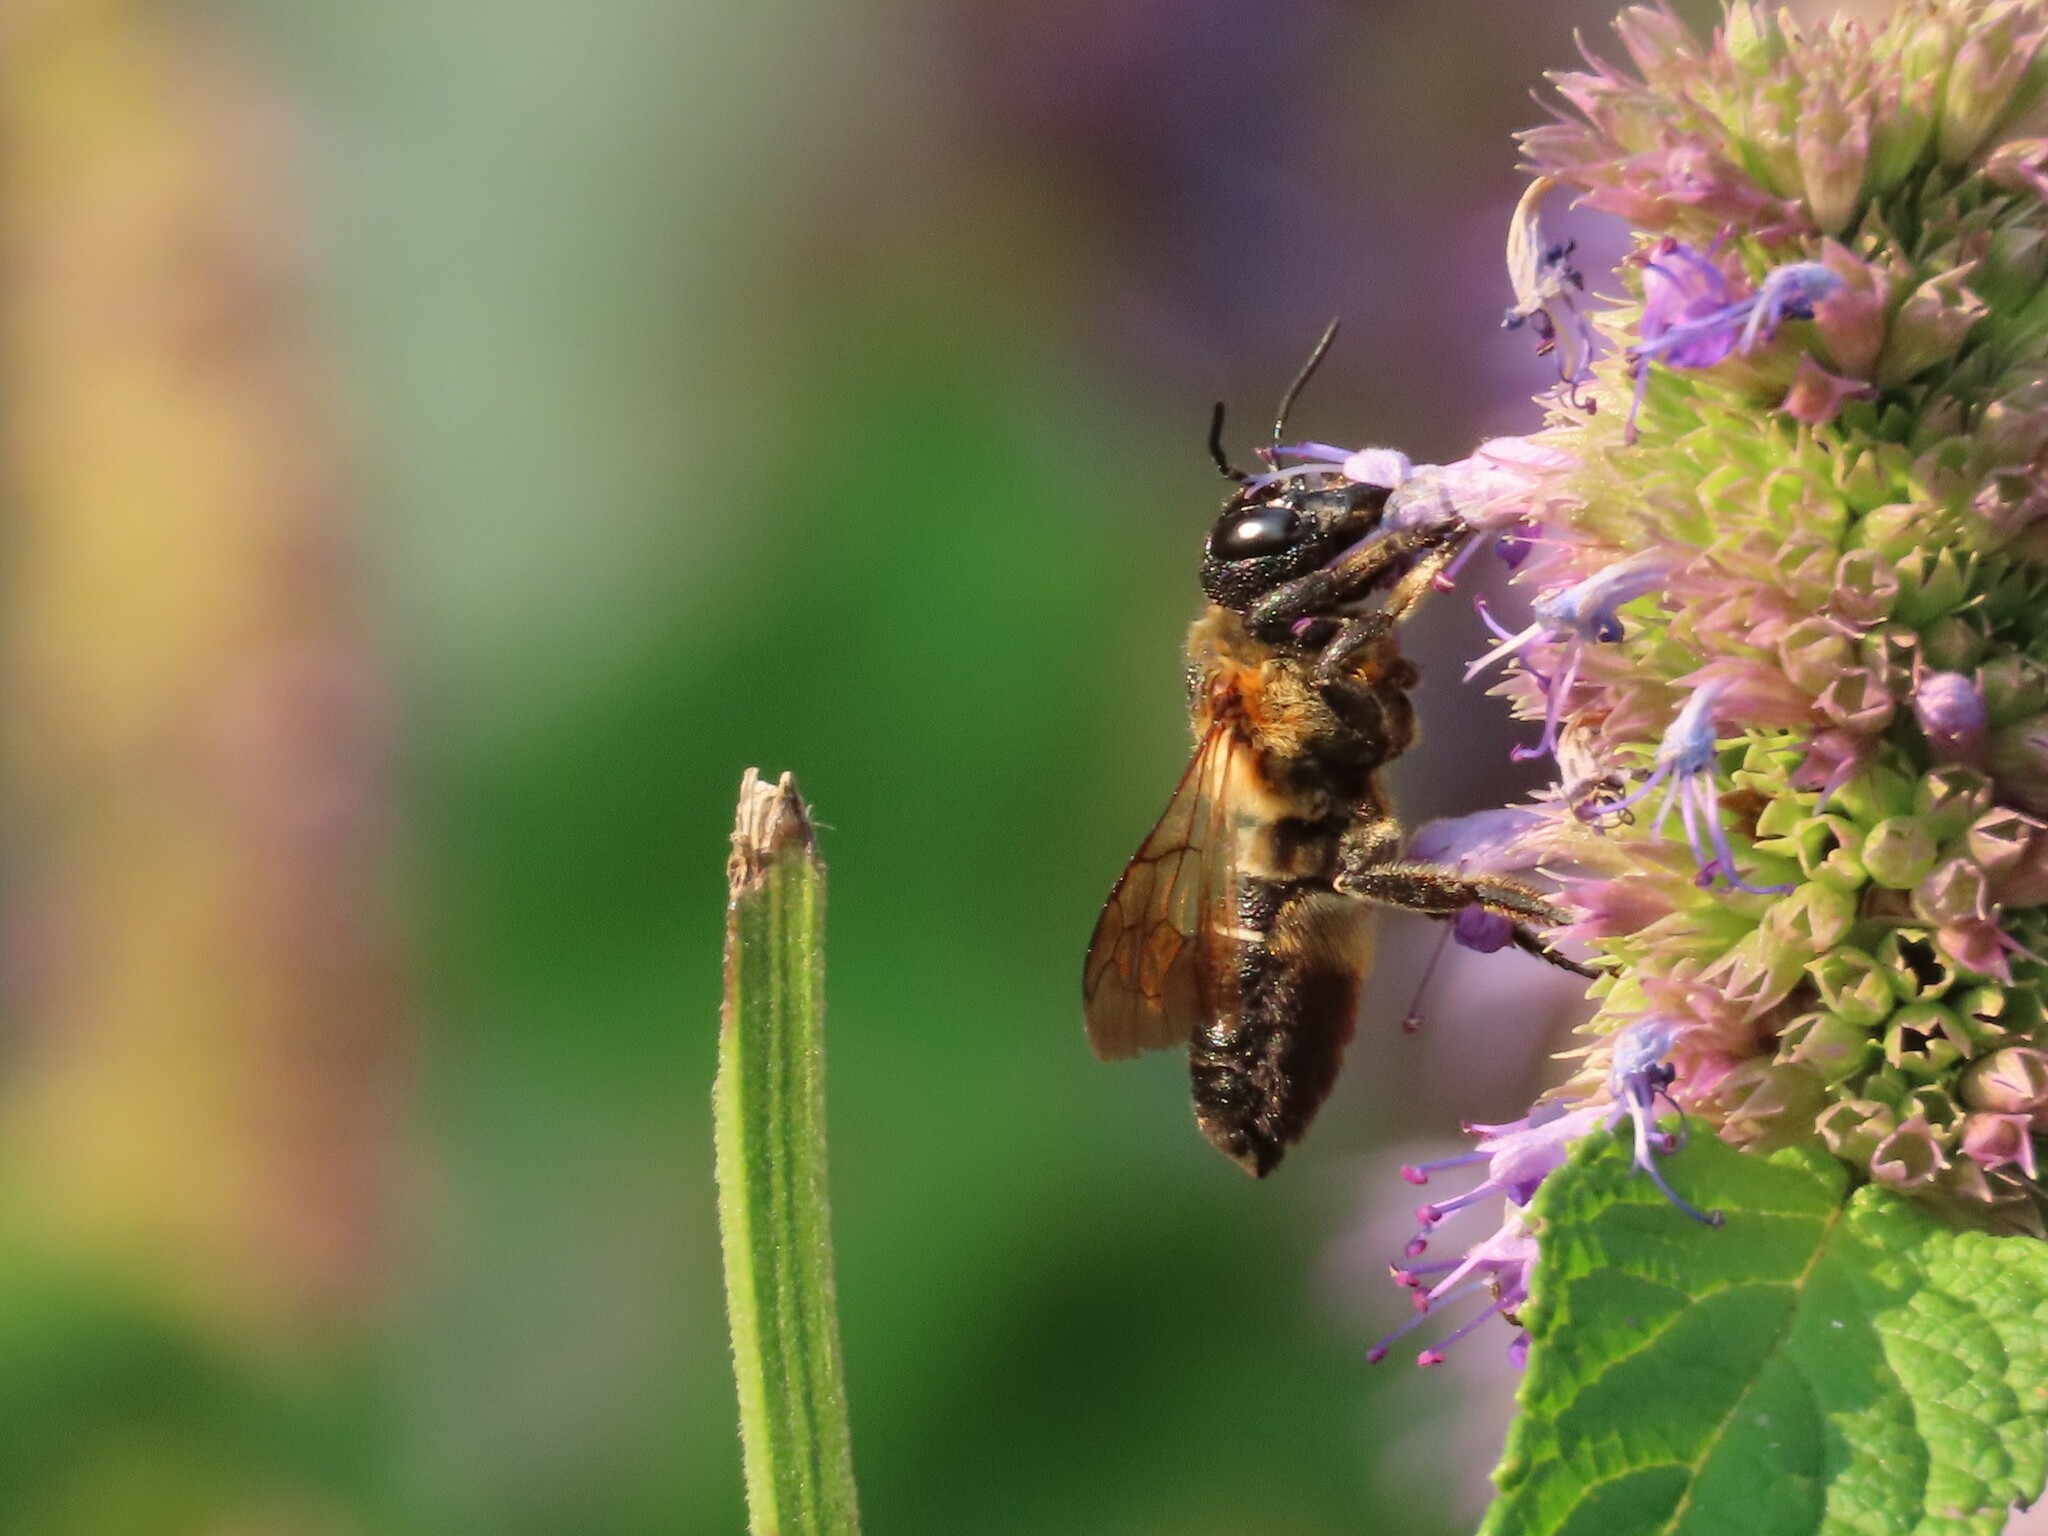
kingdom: Animalia
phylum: Arthropoda
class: Insecta
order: Hymenoptera
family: Megachilidae
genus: Megachile
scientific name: Megachile sculpturalis
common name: Sculptured resin bee
